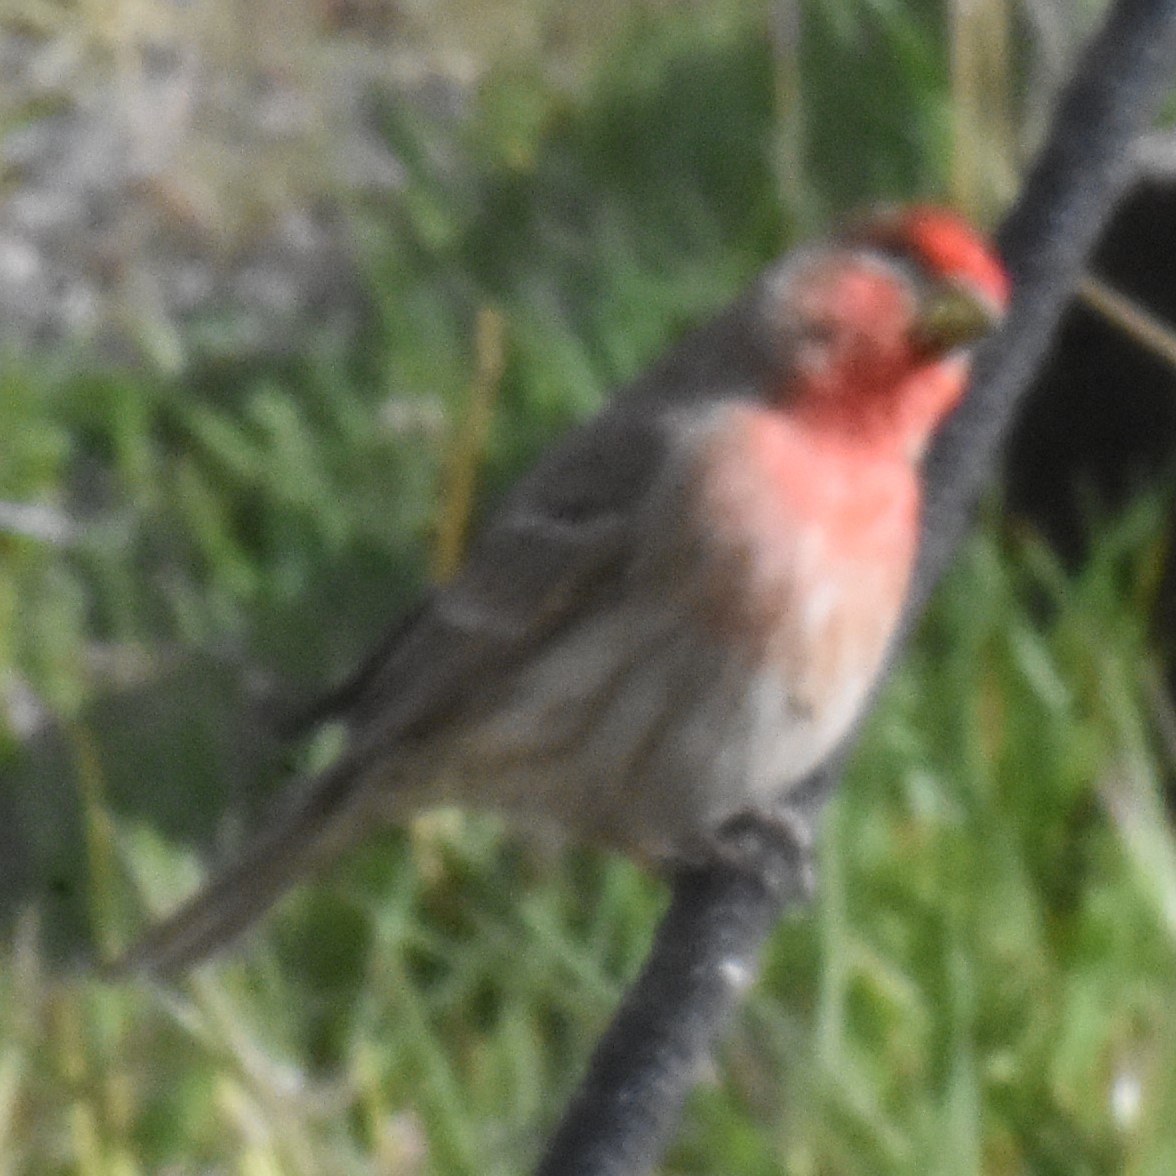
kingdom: Animalia
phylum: Chordata
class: Aves
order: Passeriformes
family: Fringillidae
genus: Haemorhous
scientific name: Haemorhous mexicanus
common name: House finch
